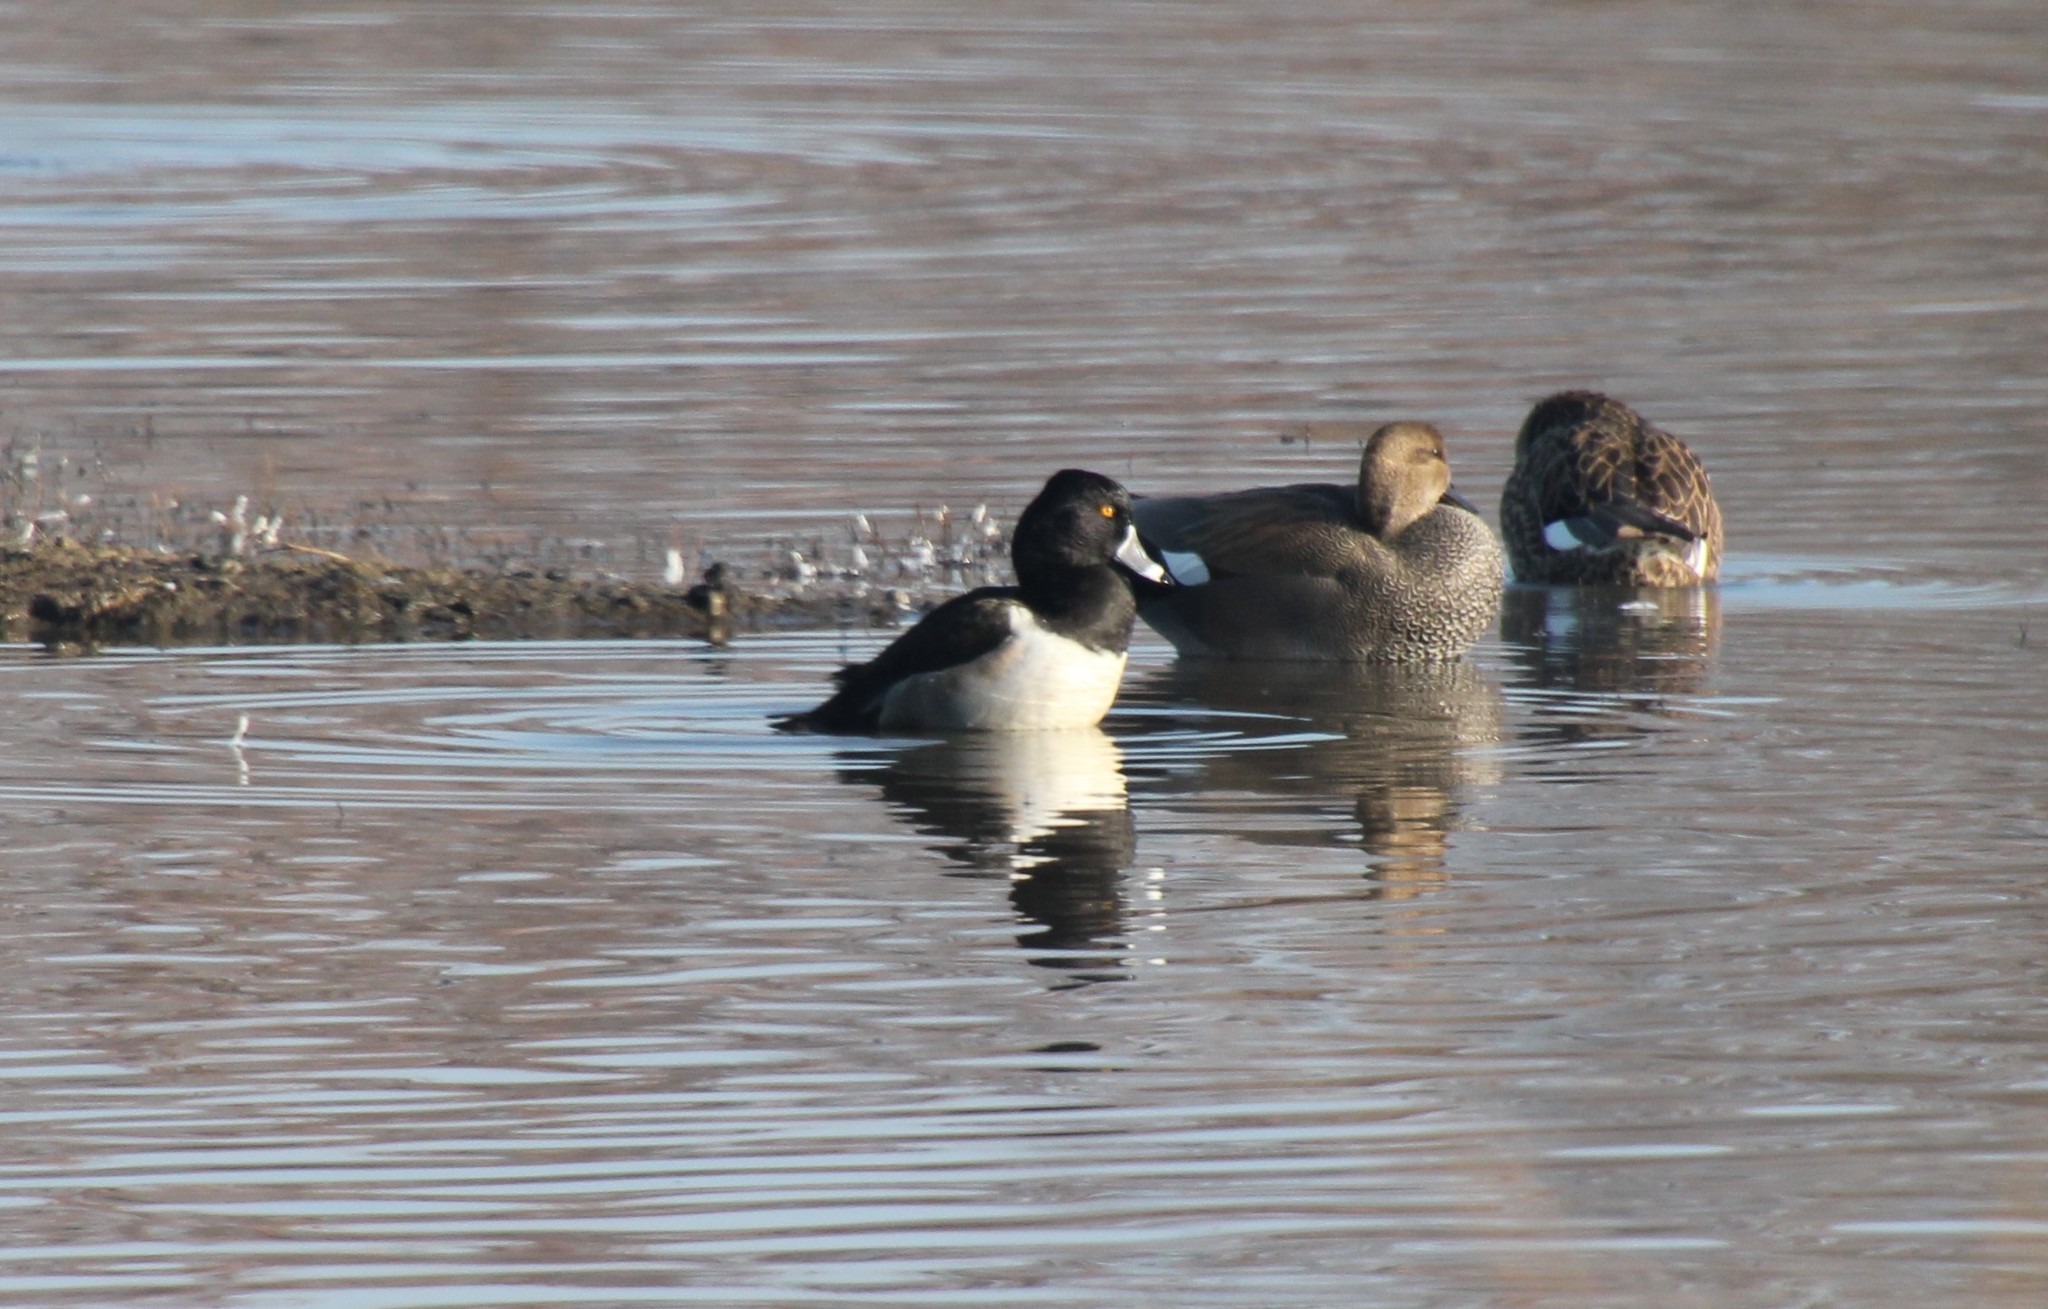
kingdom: Animalia
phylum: Chordata
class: Aves
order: Anseriformes
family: Anatidae
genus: Aythya
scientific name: Aythya collaris
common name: Ring-necked duck
